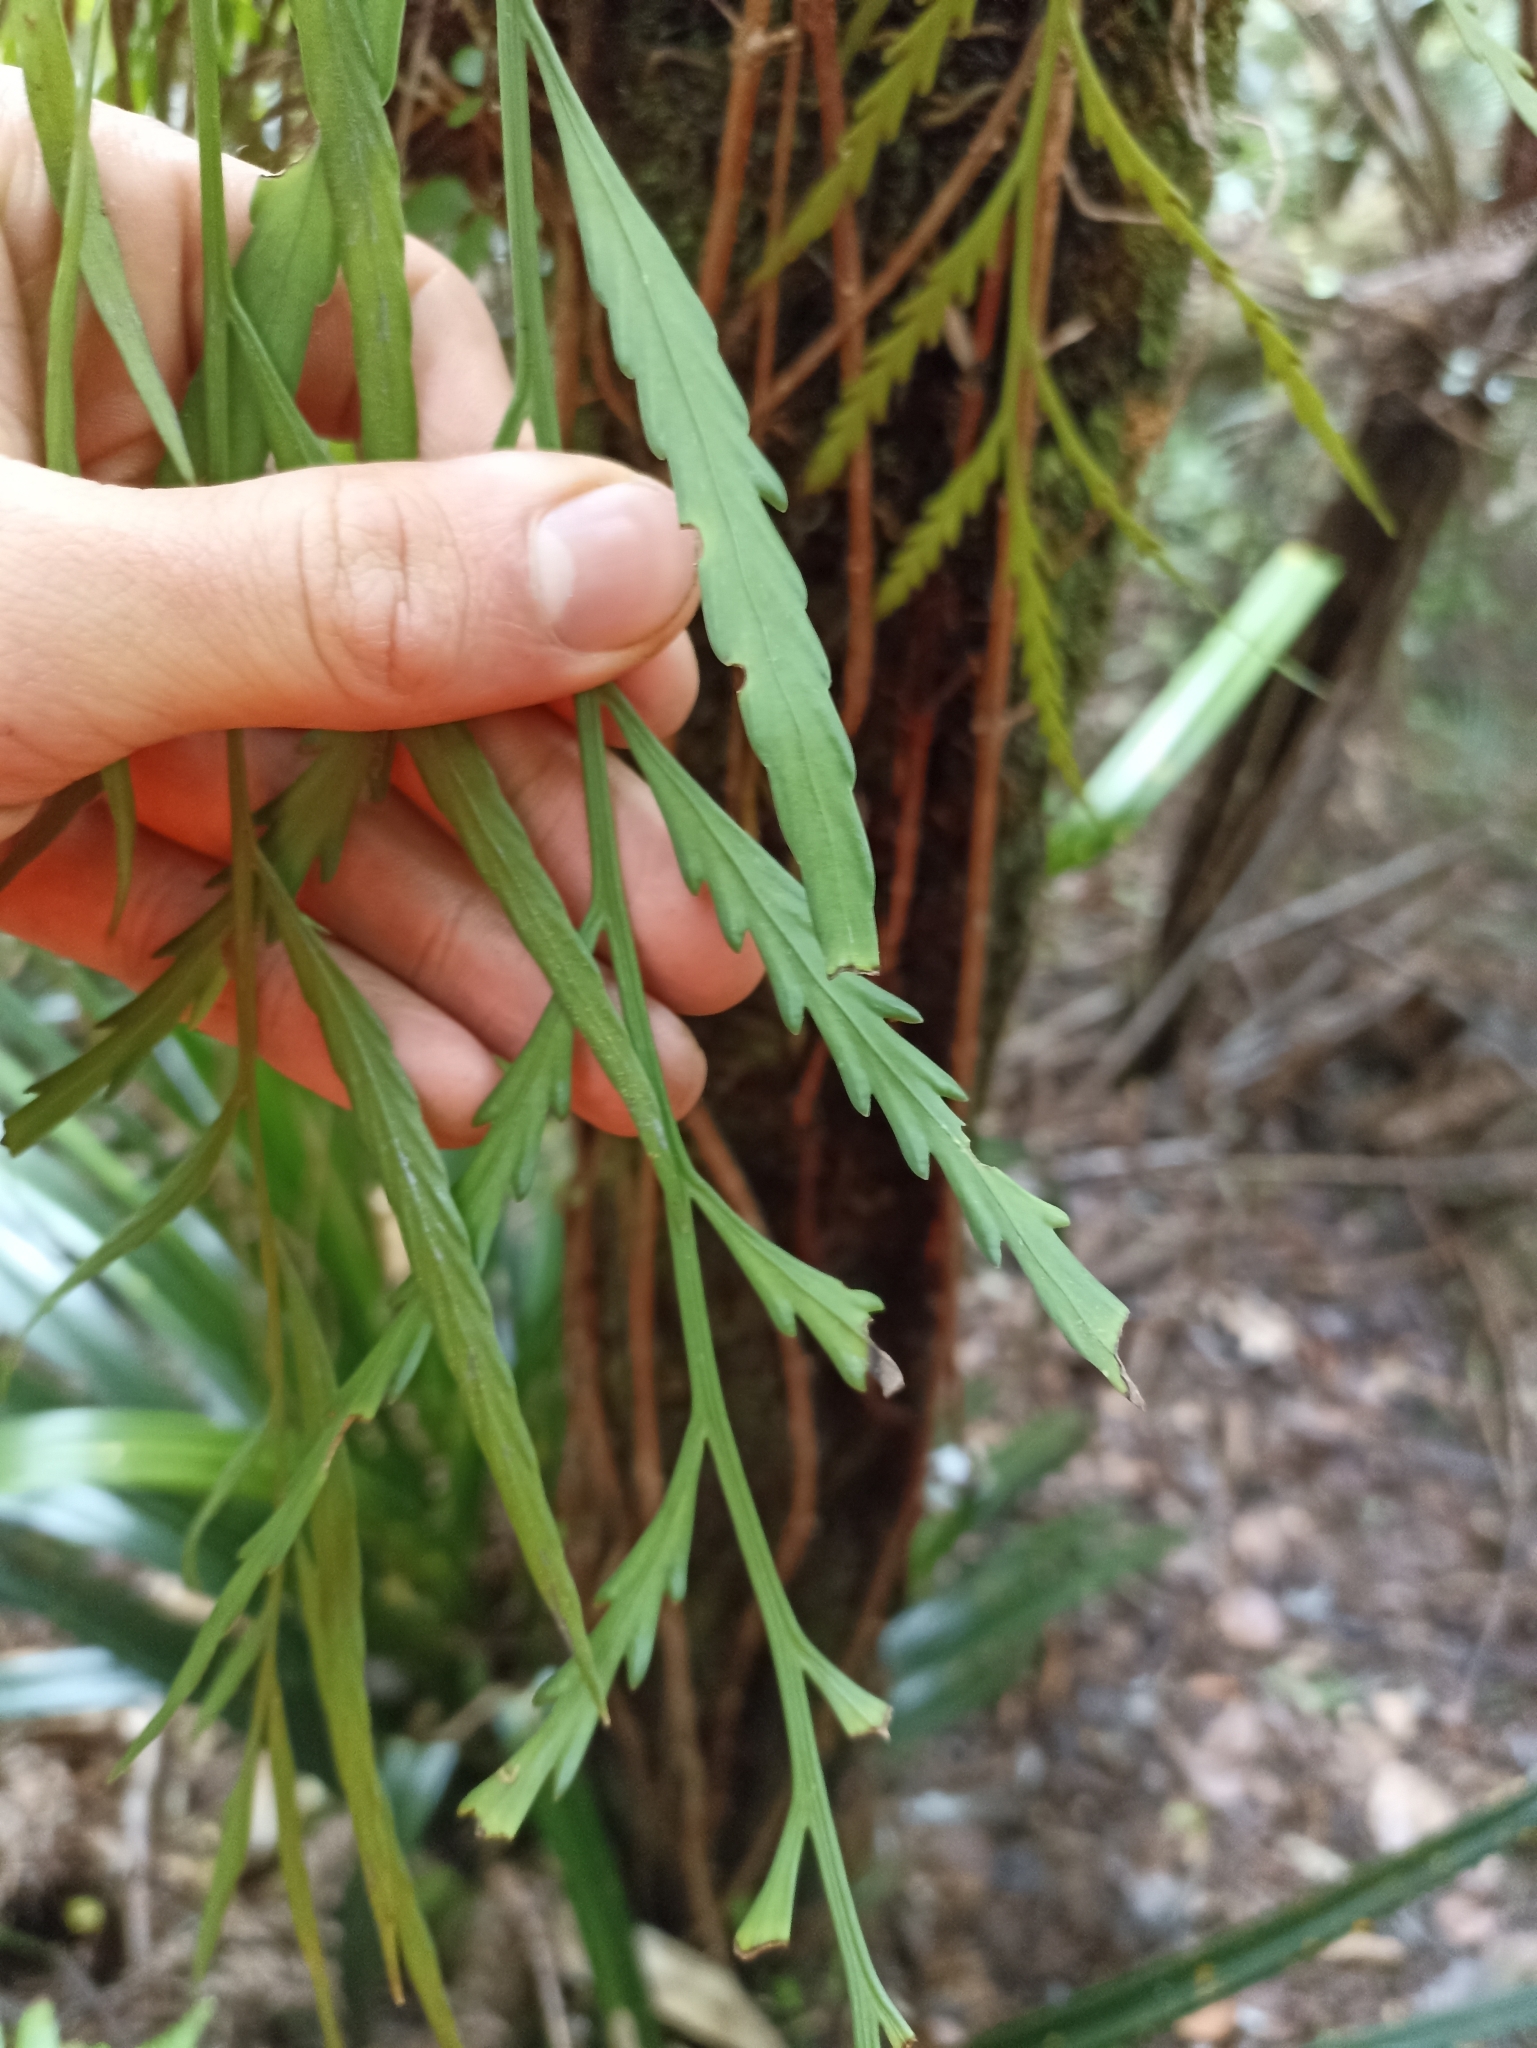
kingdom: Plantae
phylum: Tracheophyta
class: Polypodiopsida
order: Polypodiales
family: Aspleniaceae
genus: Asplenium
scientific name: Asplenium flaccidum
